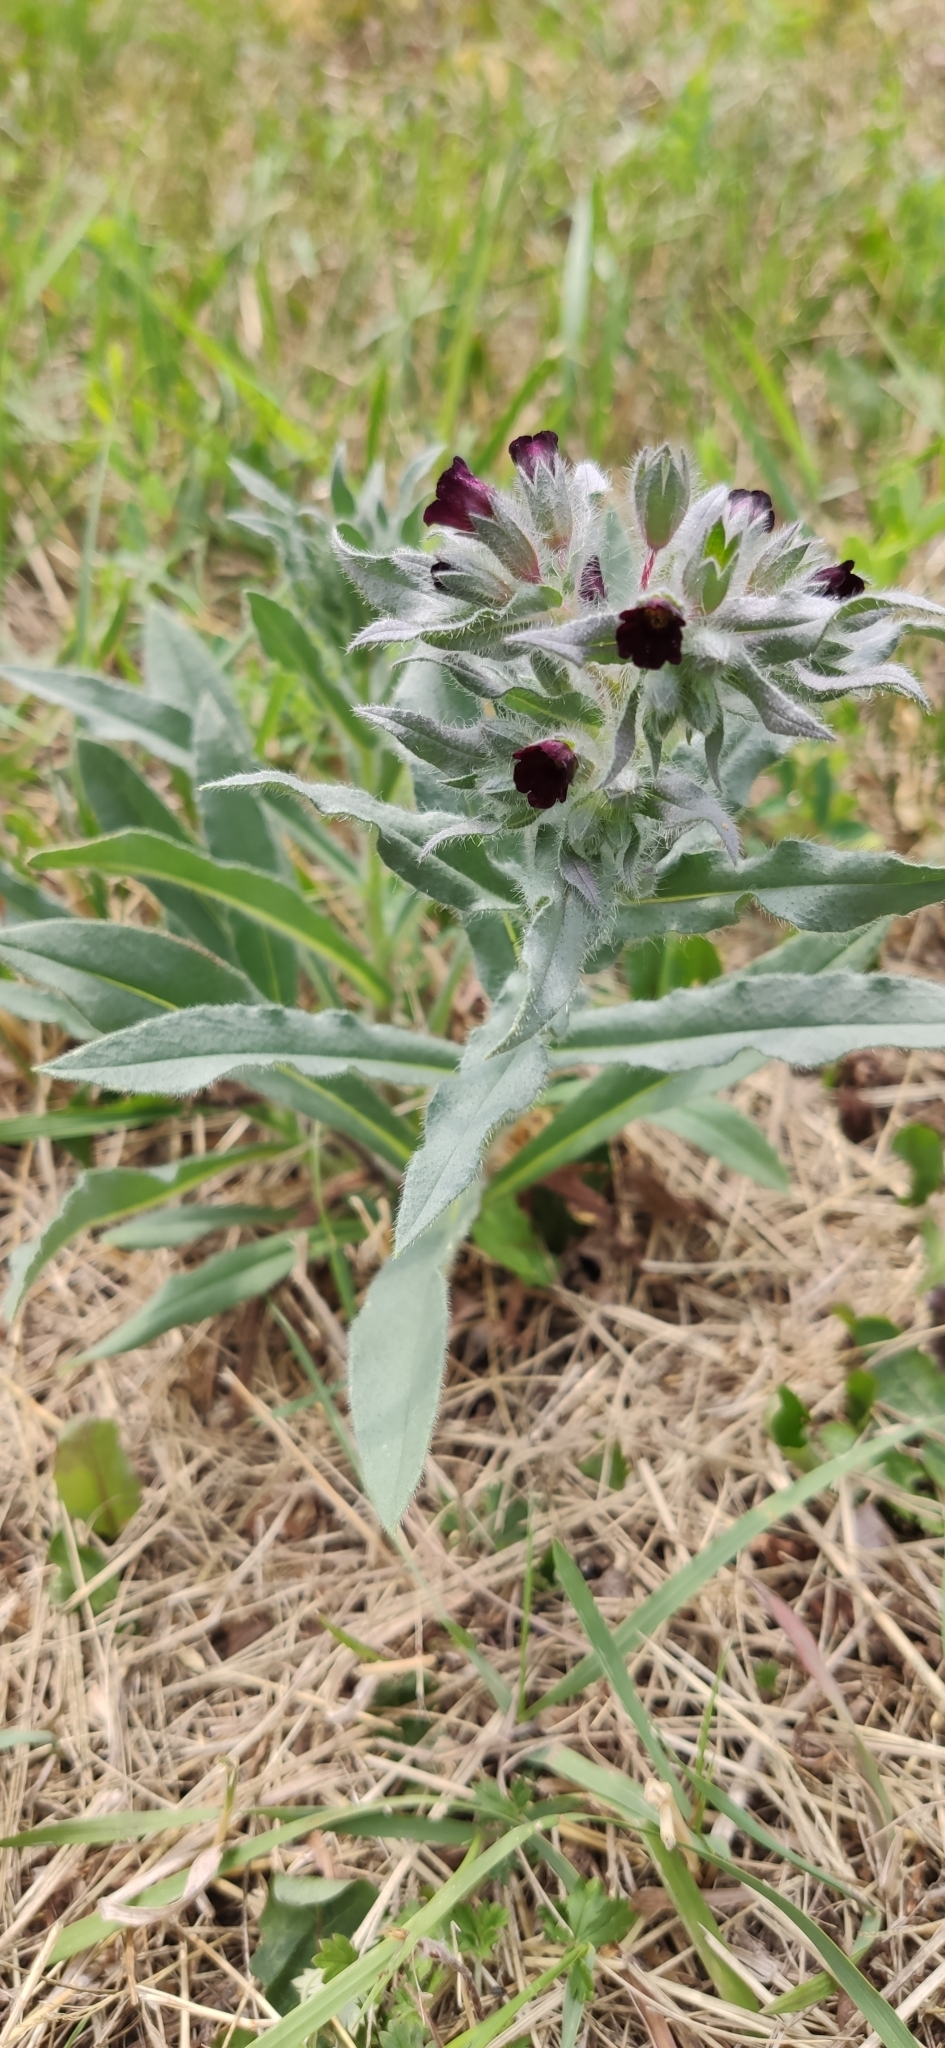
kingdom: Plantae
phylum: Tracheophyta
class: Magnoliopsida
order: Boraginales
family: Boraginaceae
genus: Nonea
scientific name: Nonea pulla
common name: Brown nonea
